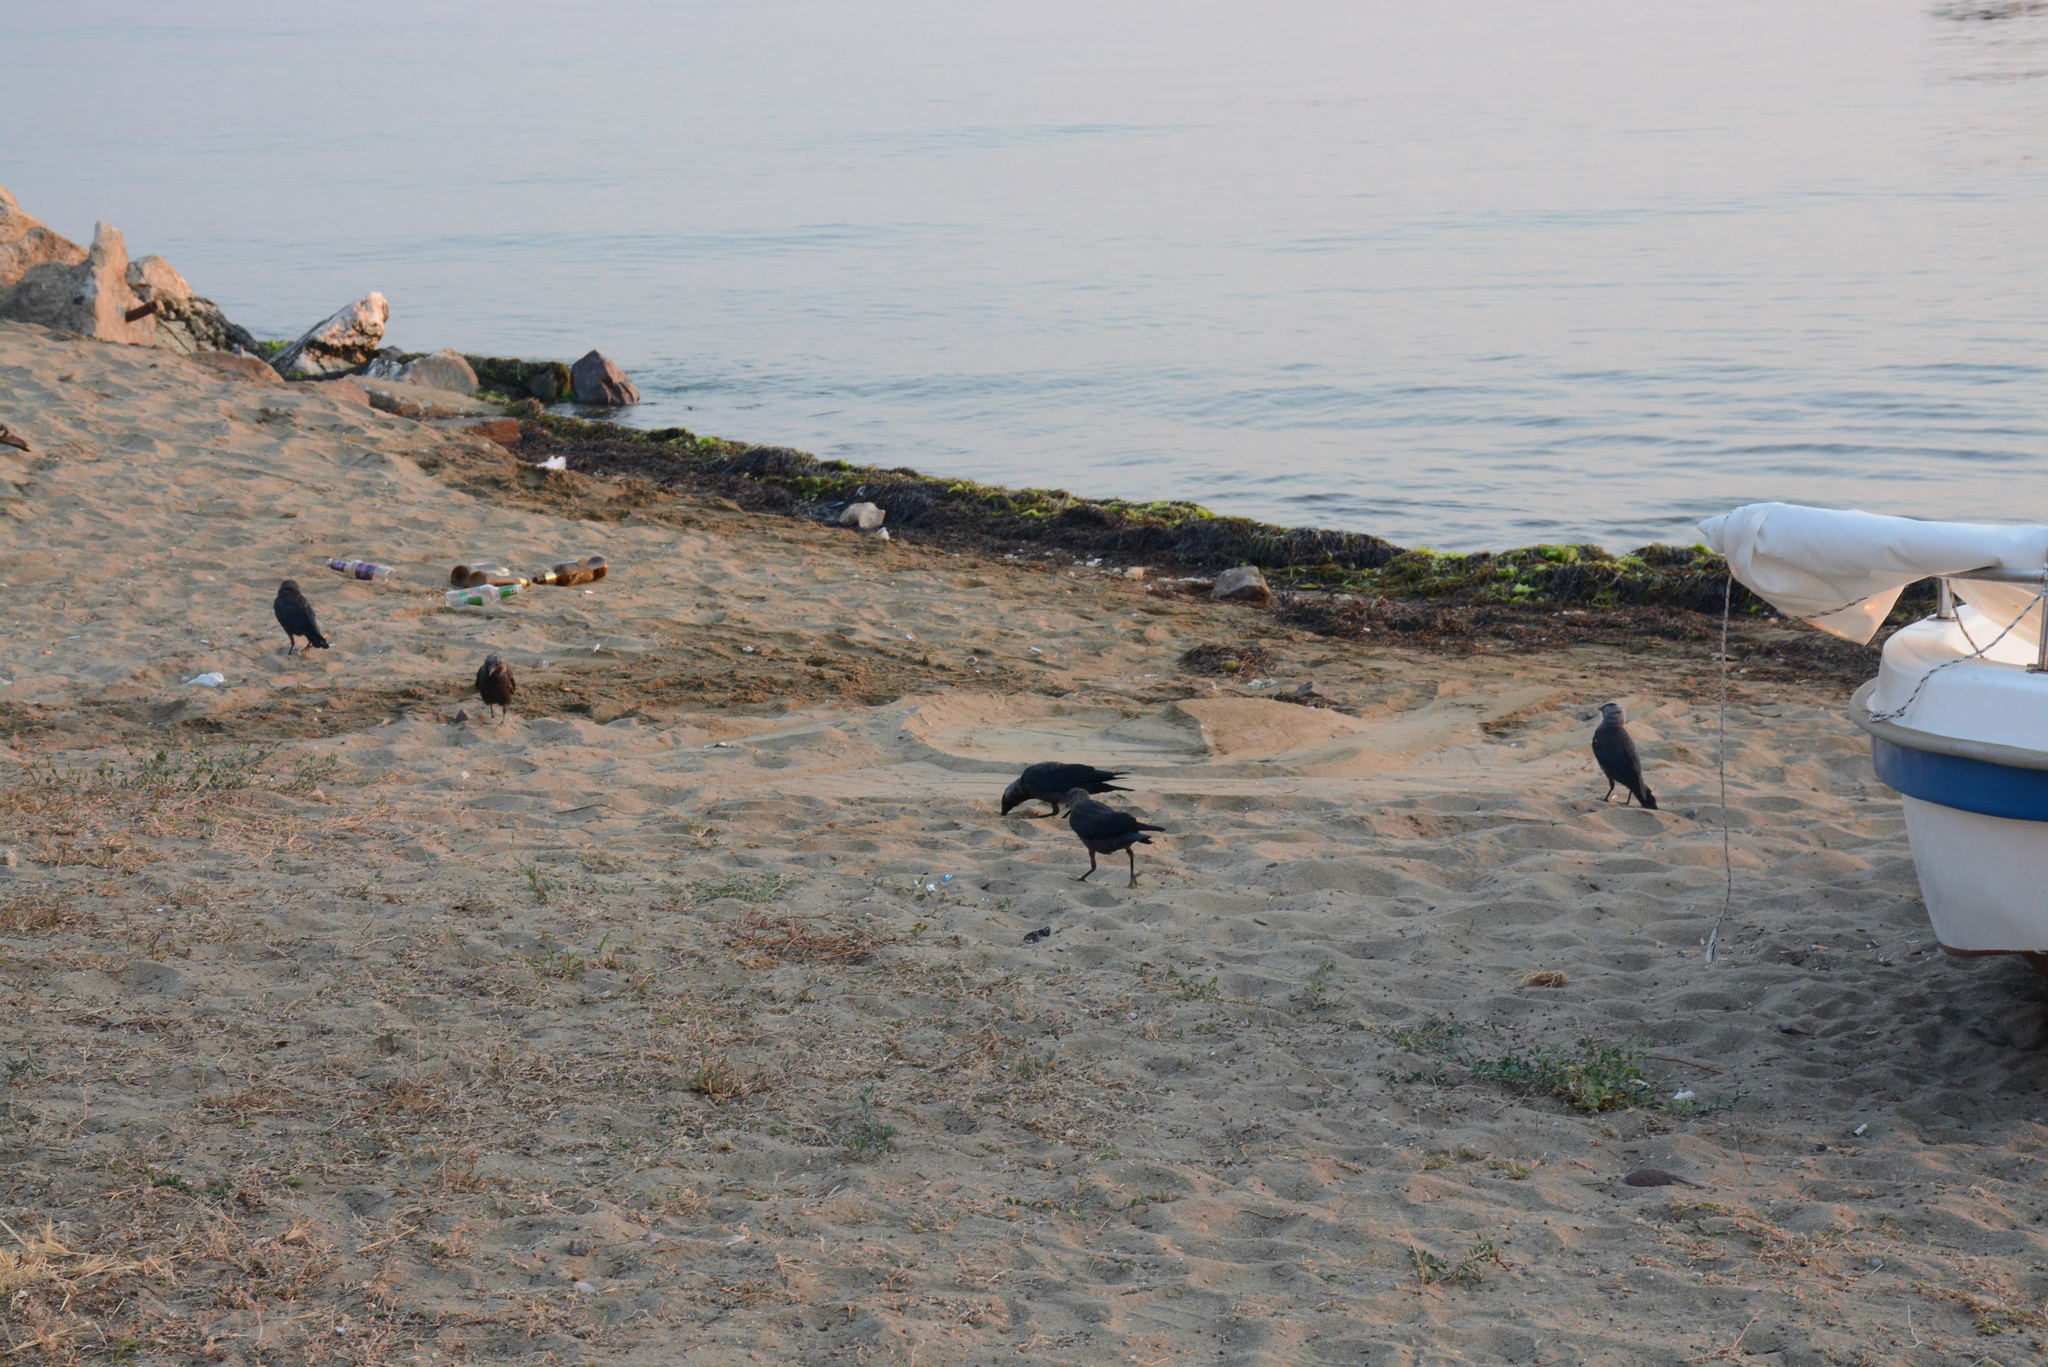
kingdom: Animalia
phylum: Chordata
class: Aves
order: Passeriformes
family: Corvidae
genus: Coloeus
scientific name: Coloeus monedula
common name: Western jackdaw
